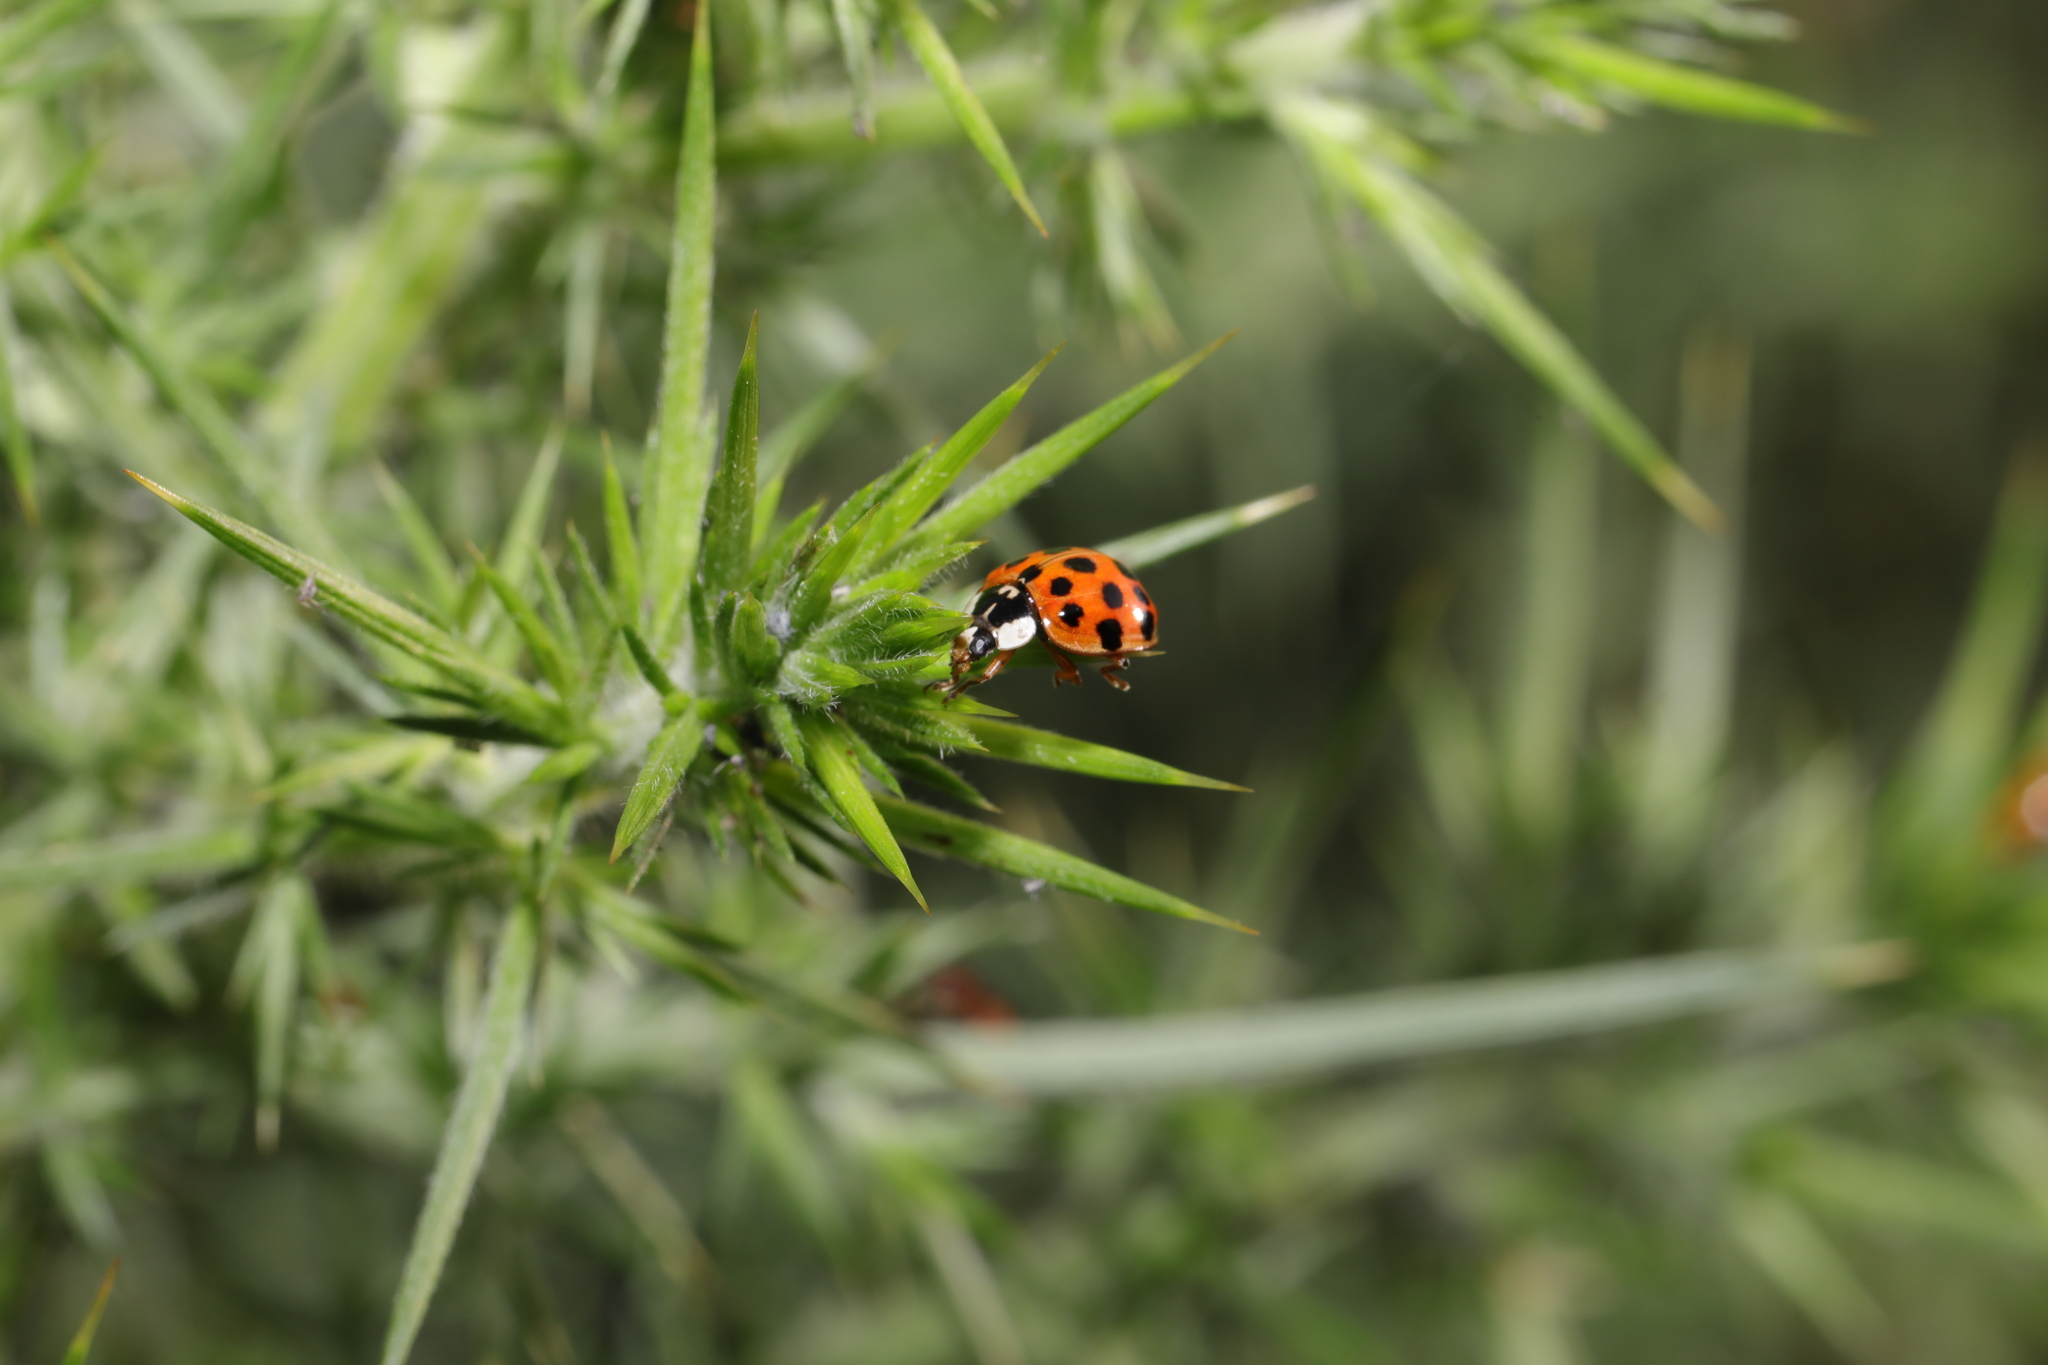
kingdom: Animalia
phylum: Arthropoda
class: Insecta
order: Coleoptera
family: Coccinellidae
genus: Harmonia
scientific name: Harmonia axyridis
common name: Harlequin ladybird
